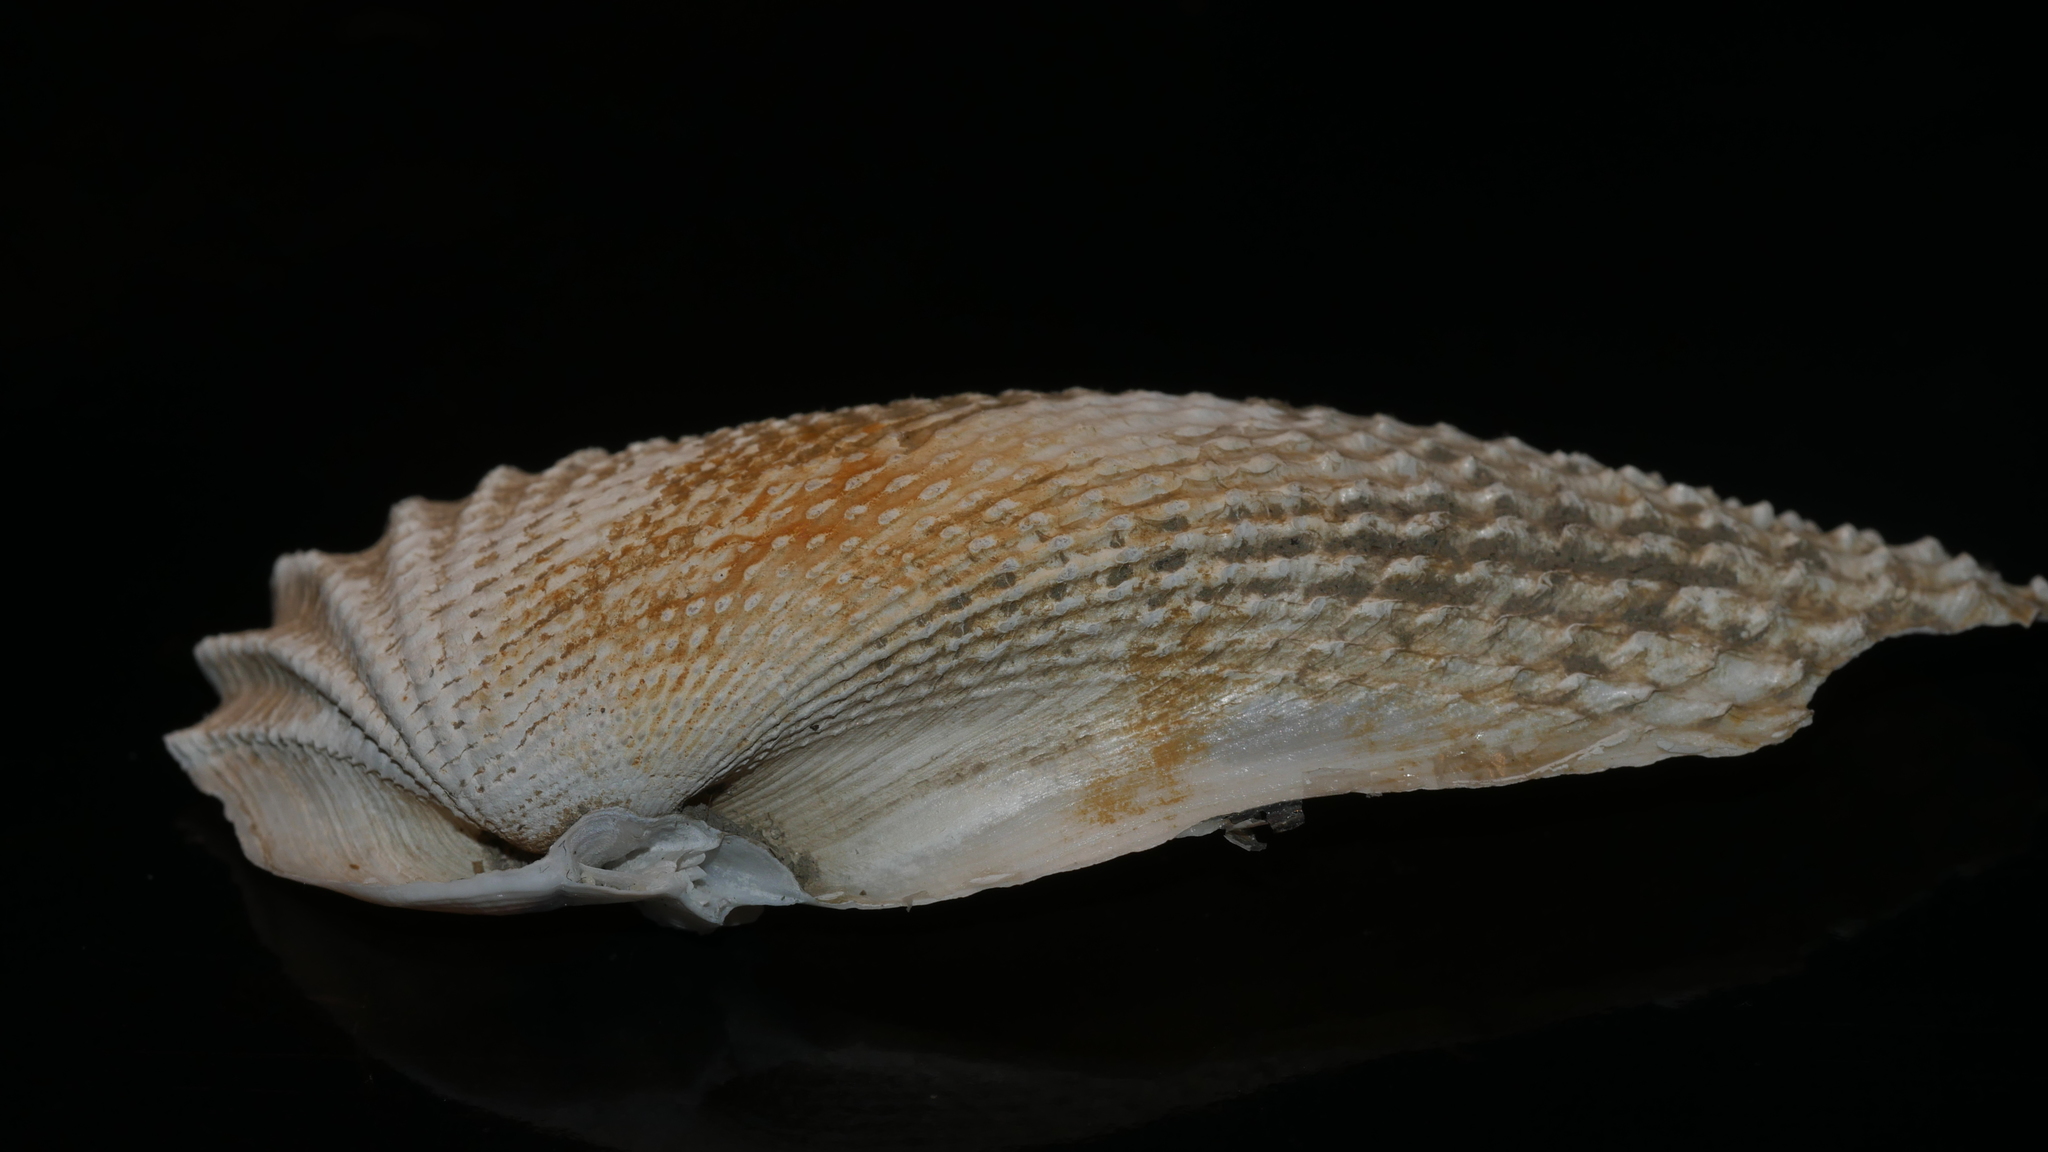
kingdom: Animalia
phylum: Mollusca
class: Bivalvia
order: Myida
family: Pholadidae
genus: Cyrtopleura
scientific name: Cyrtopleura costata
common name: Angel wing
